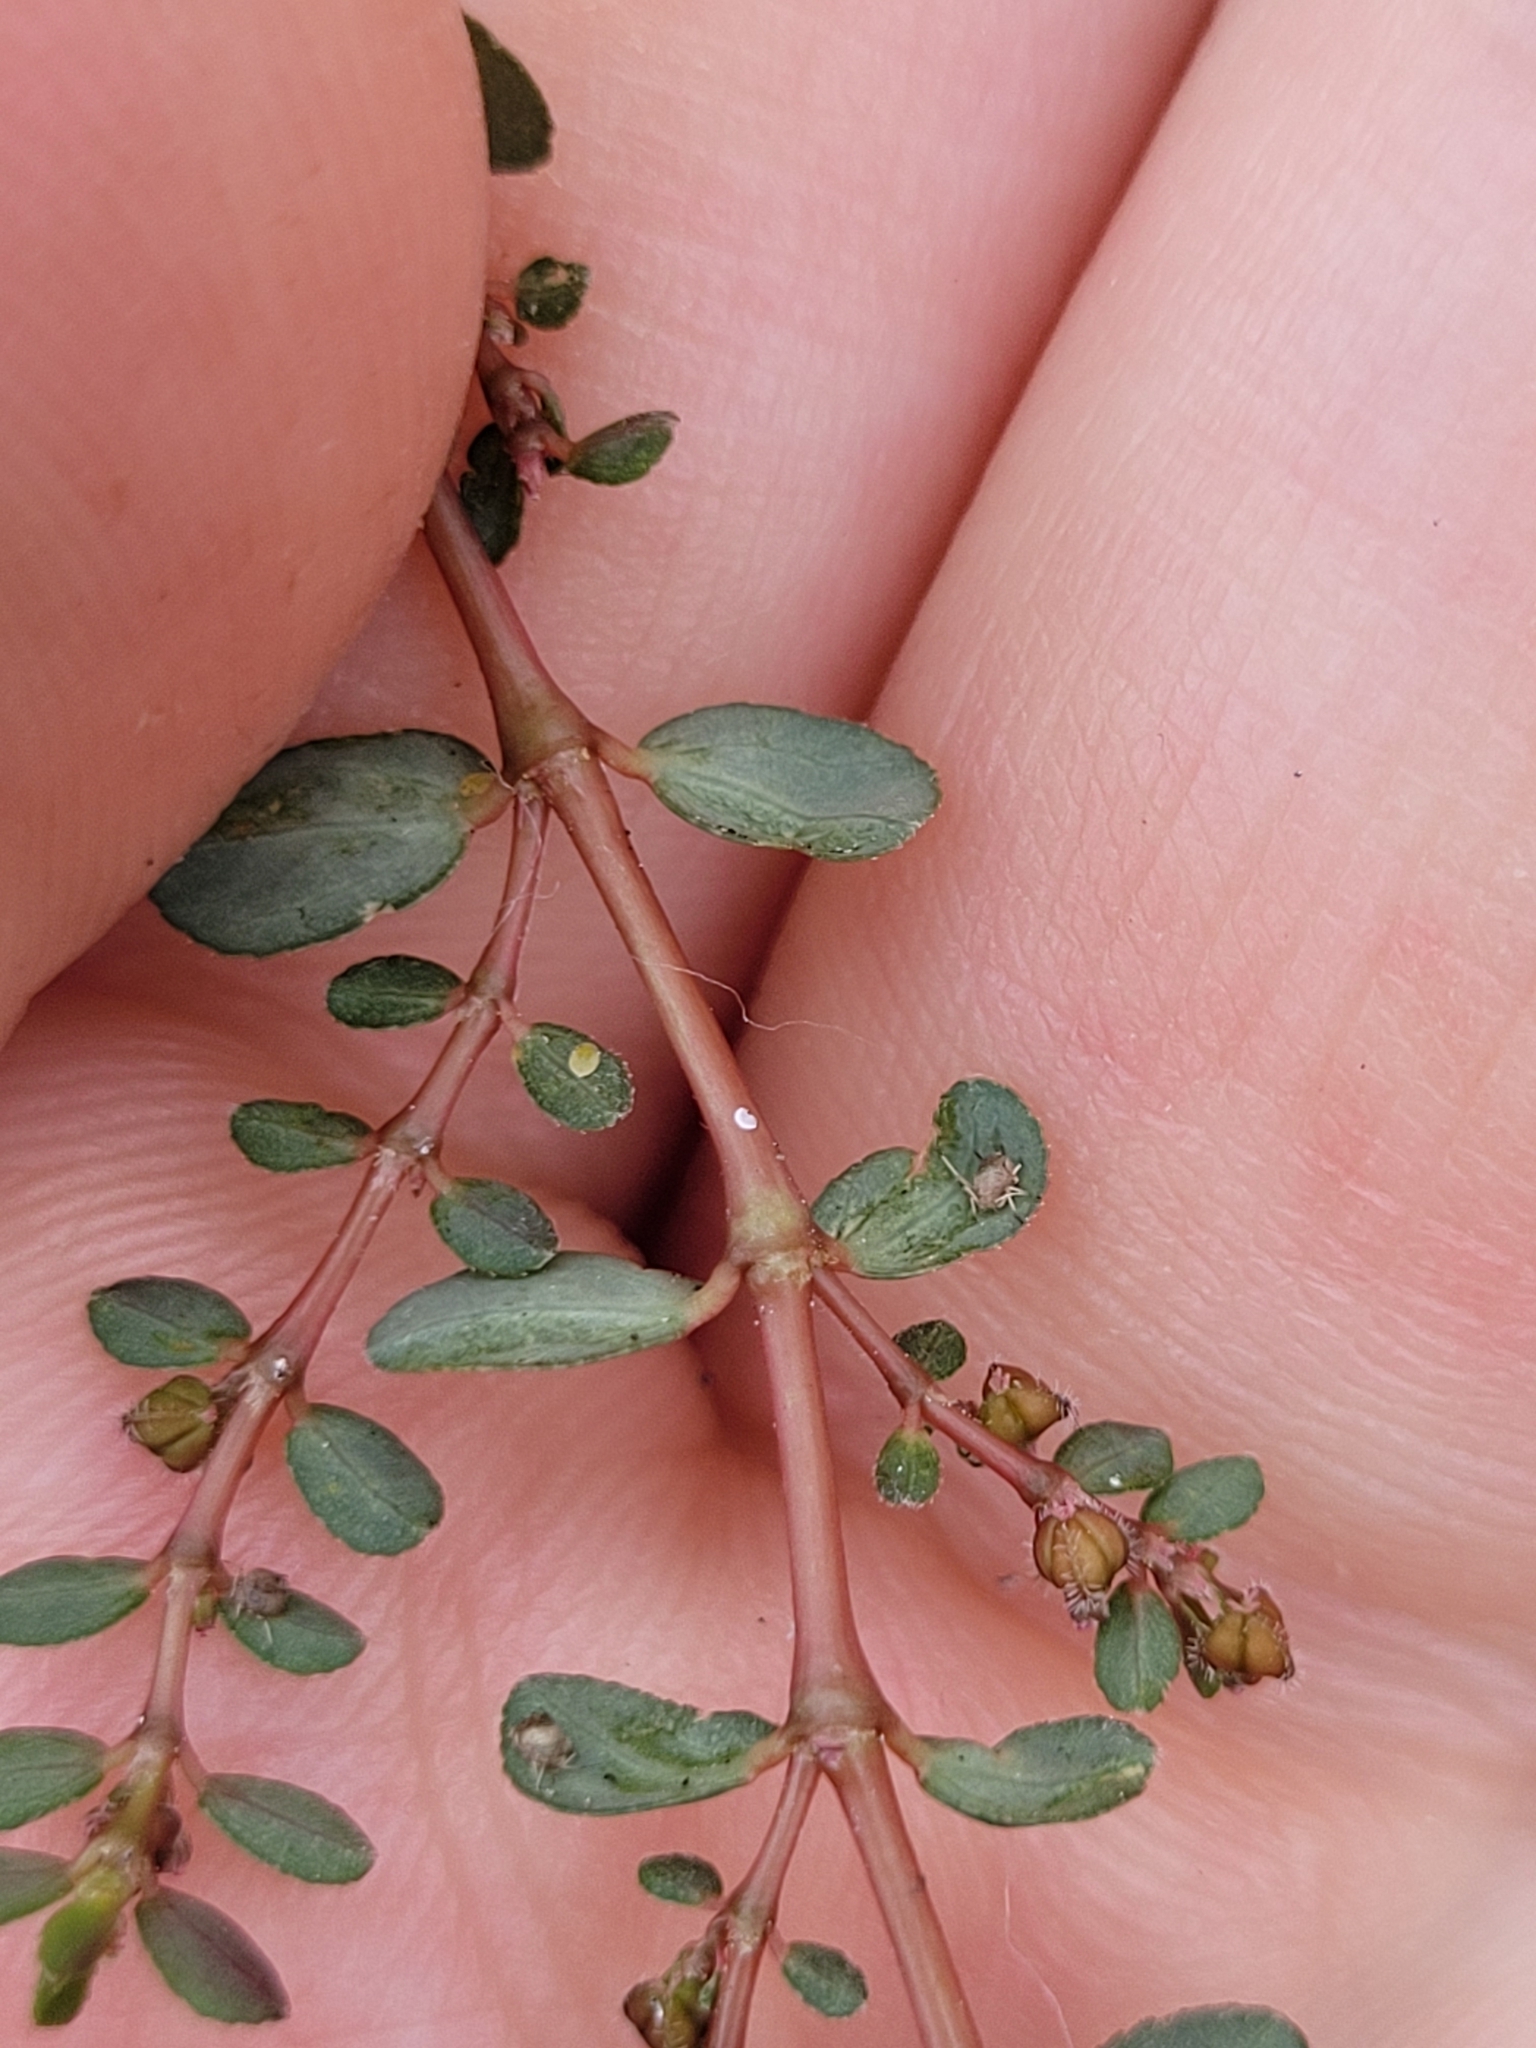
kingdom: Plantae
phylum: Tracheophyta
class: Magnoliopsida
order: Malpighiales
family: Euphorbiaceae
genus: Euphorbia
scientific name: Euphorbia prostrata
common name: Prostrate sandmat
